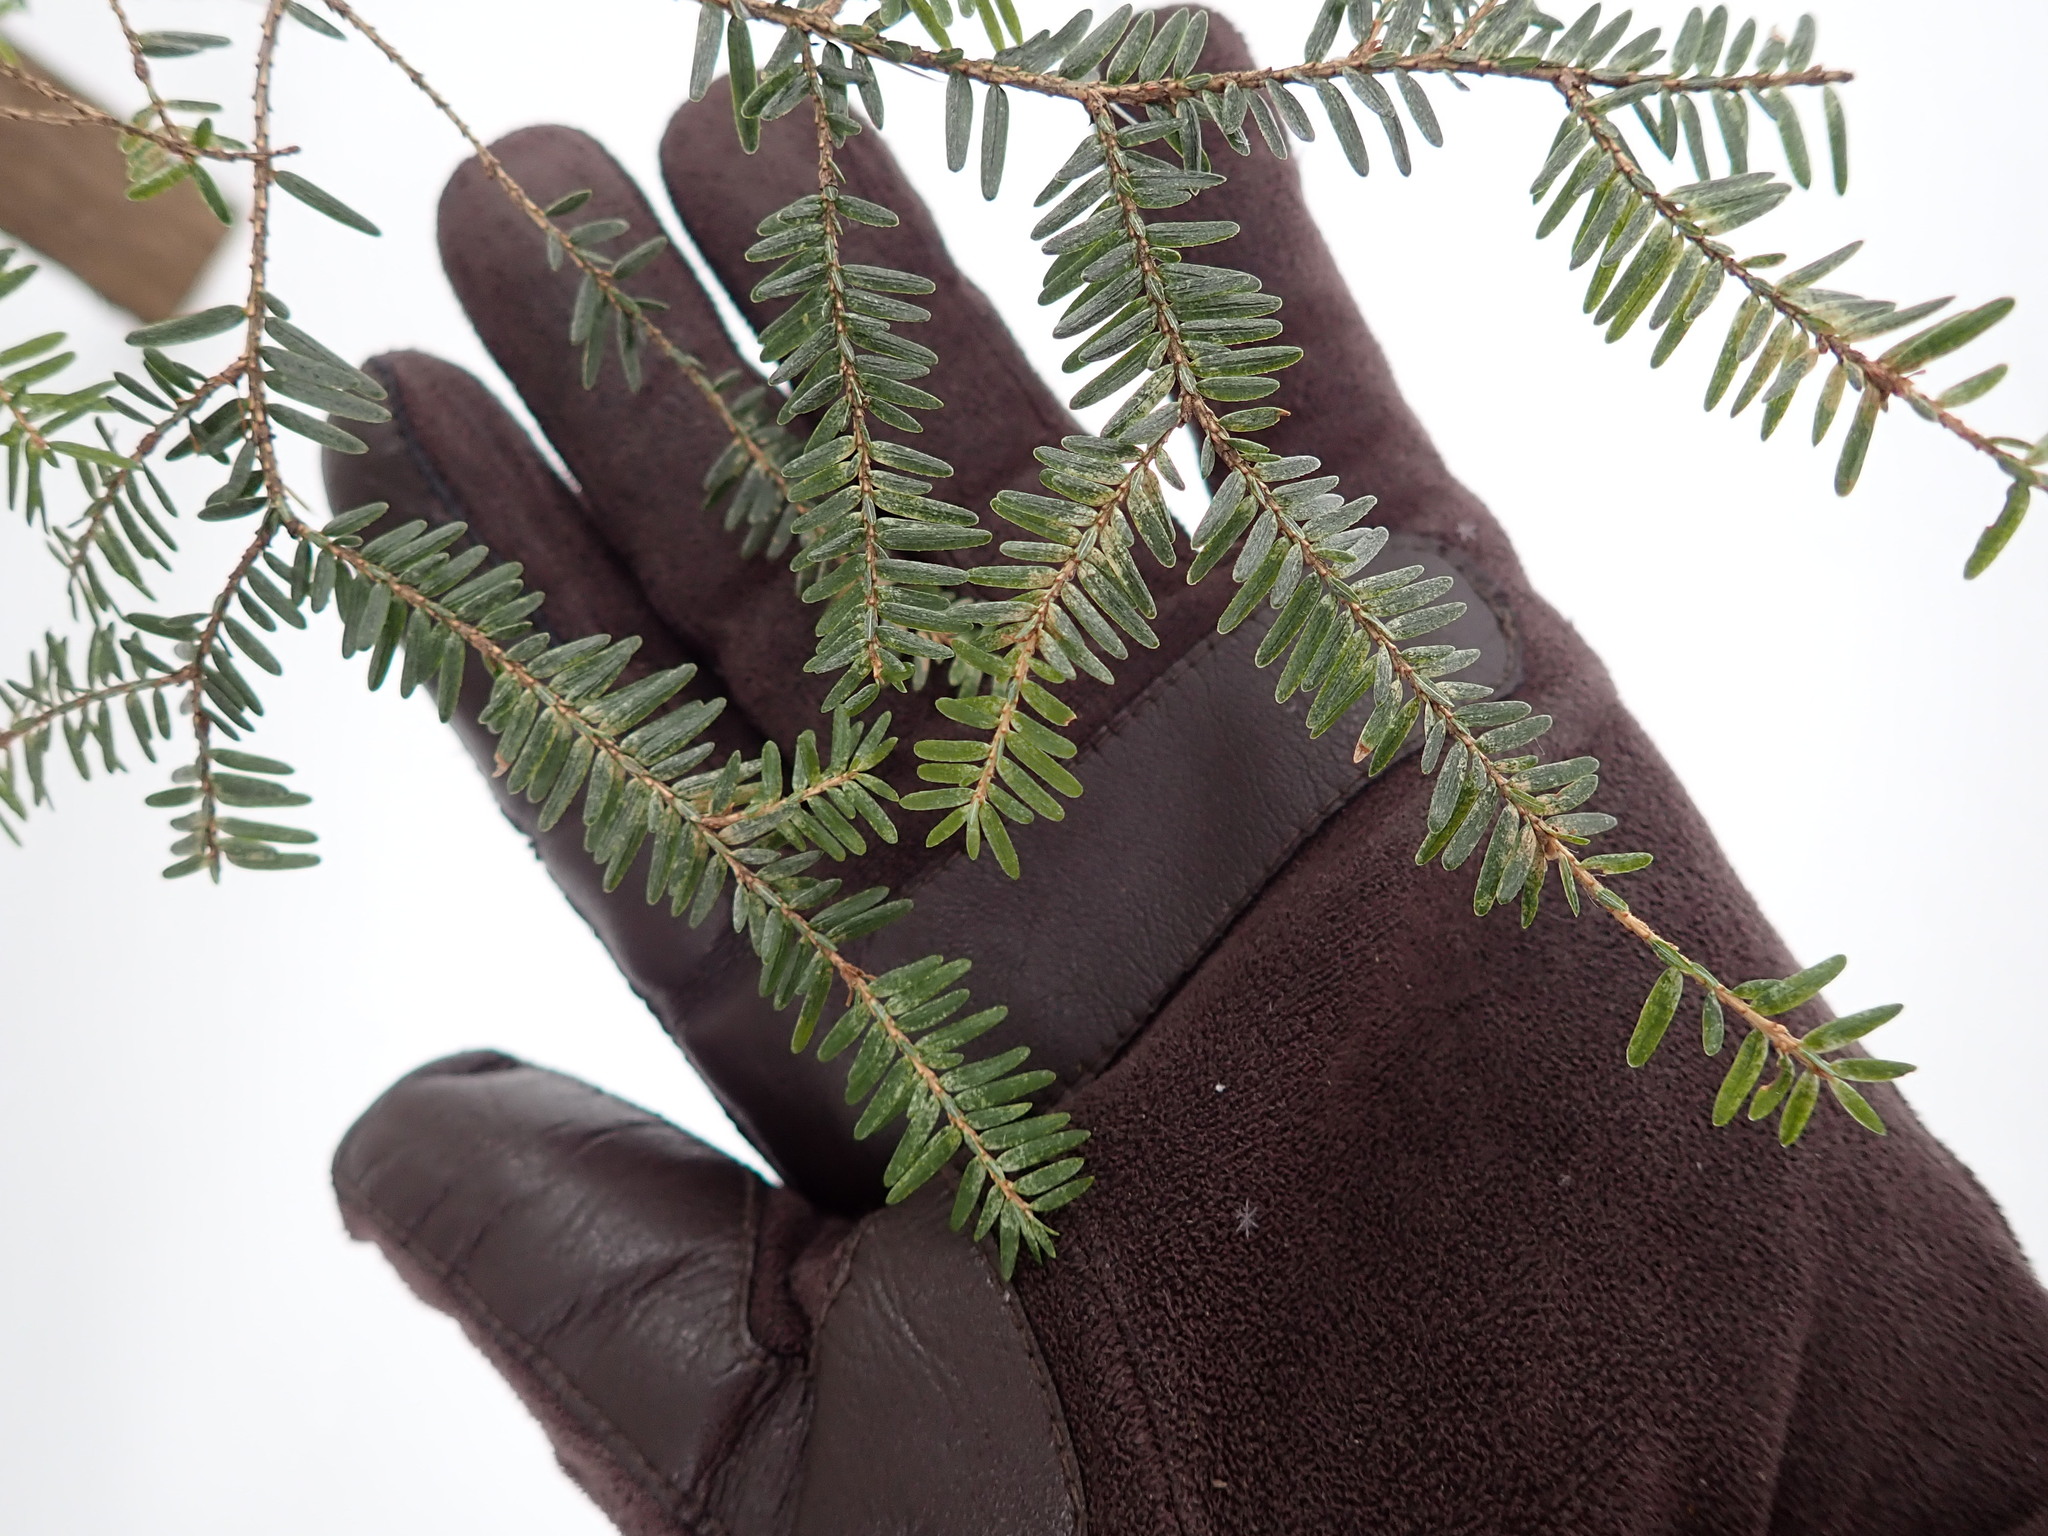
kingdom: Plantae
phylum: Tracheophyta
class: Pinopsida
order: Pinales
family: Pinaceae
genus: Tsuga
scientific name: Tsuga canadensis
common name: Eastern hemlock
